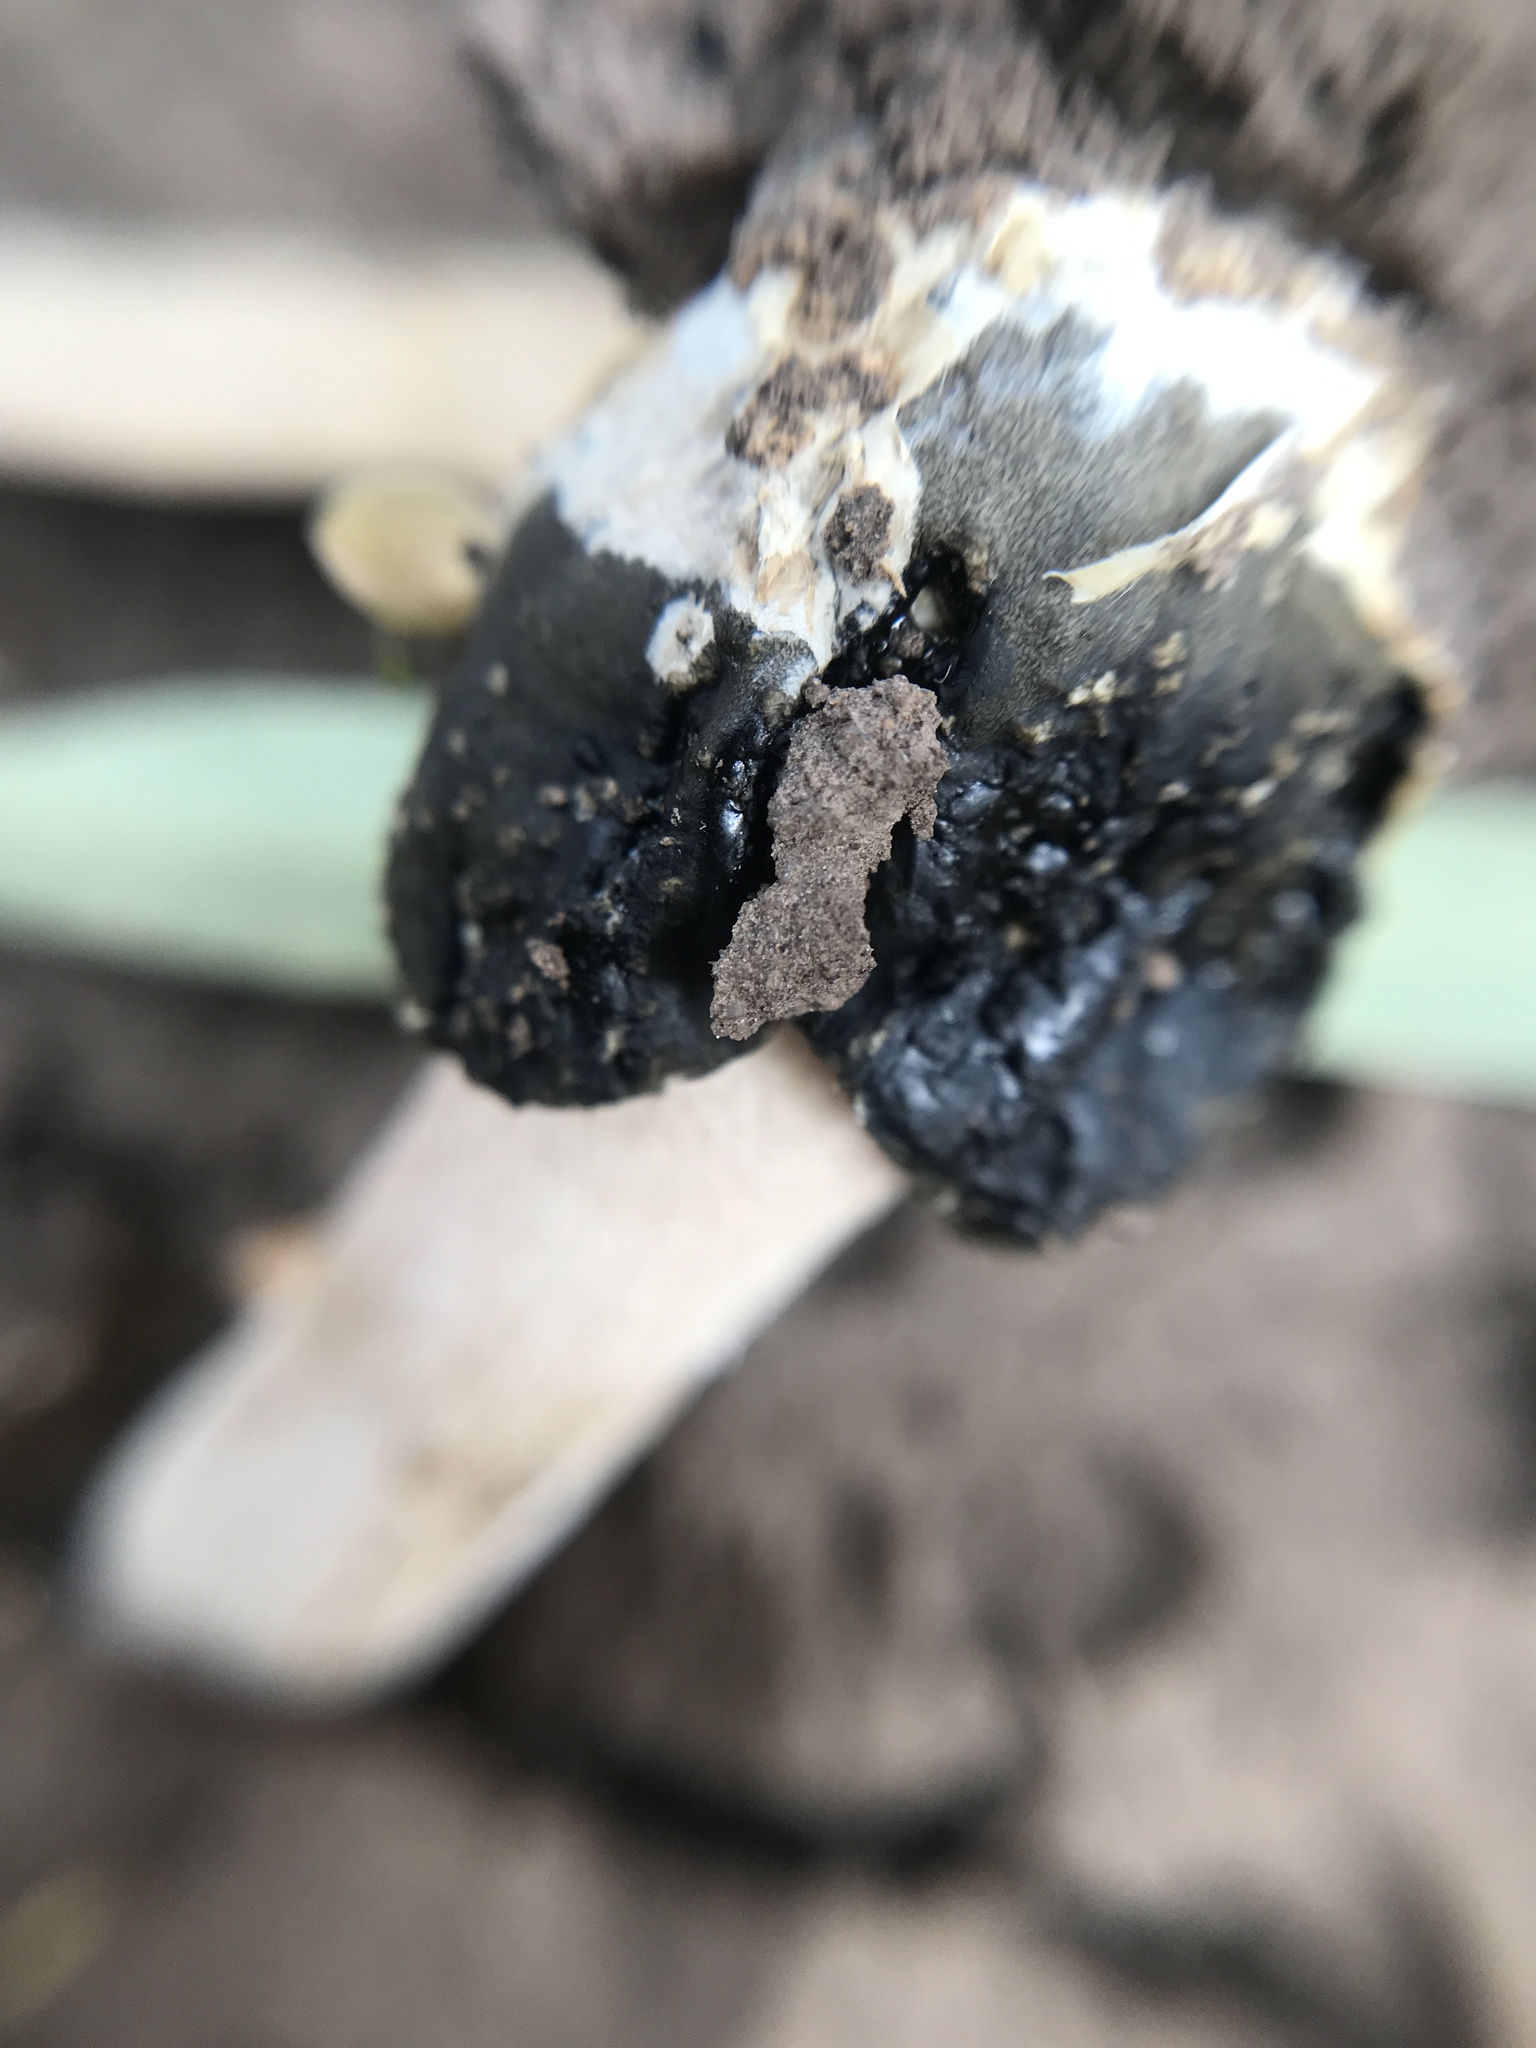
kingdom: Fungi
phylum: Basidiomycota
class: Agaricomycetes
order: Phallales
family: Phallaceae
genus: Itajahya
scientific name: Itajahya galericulata
